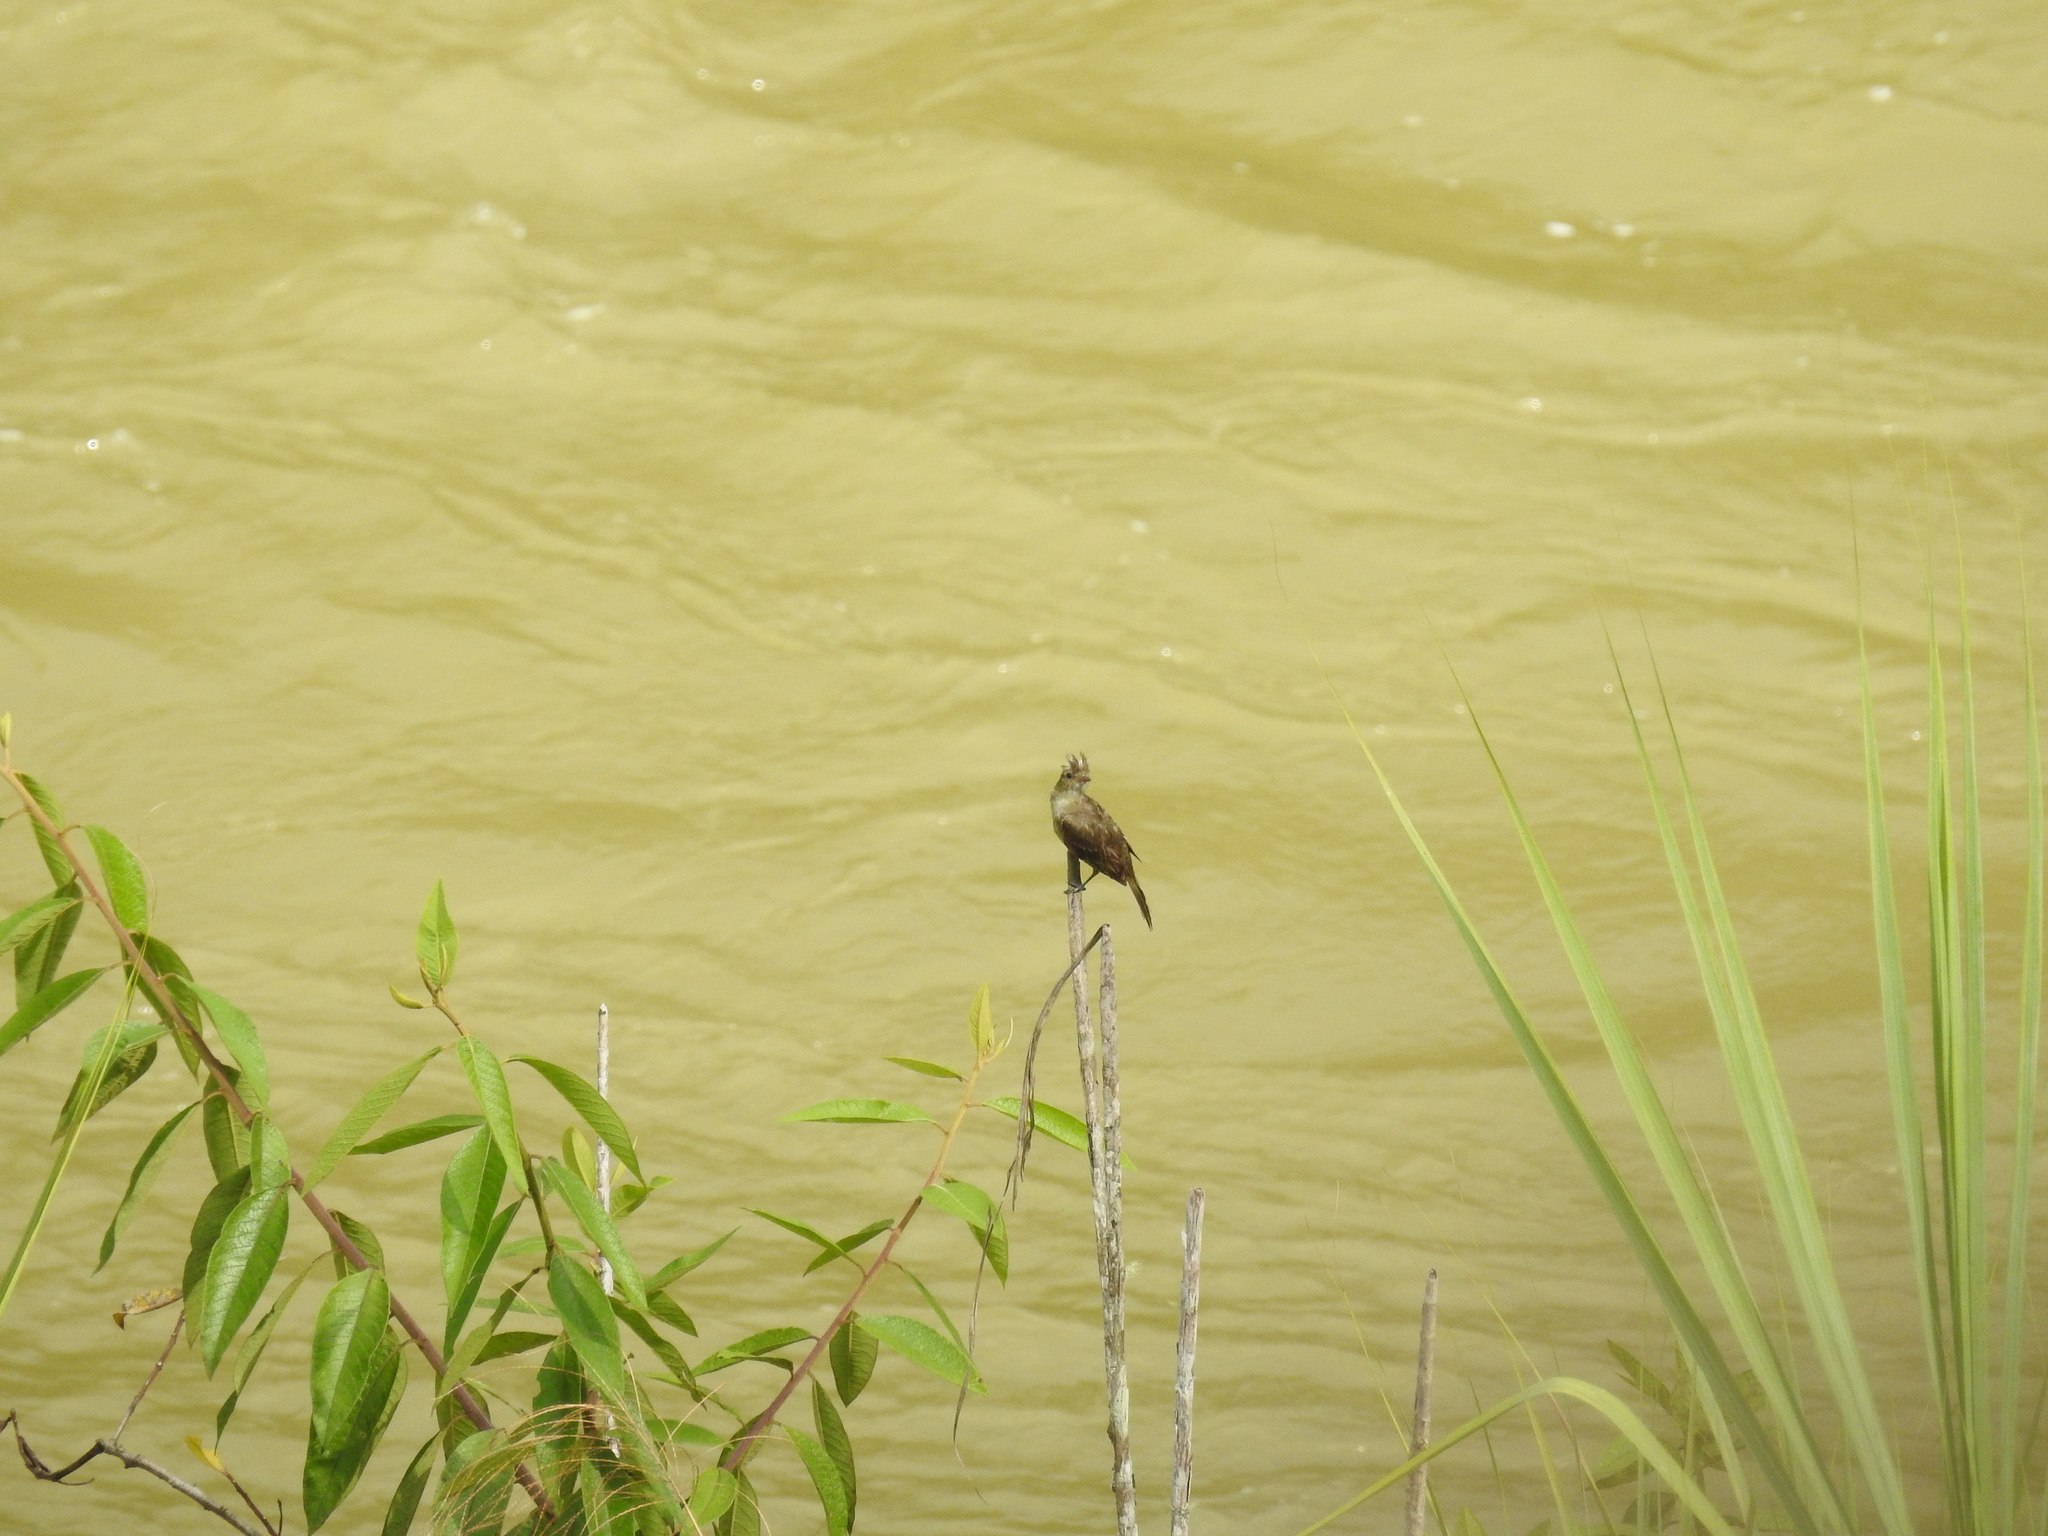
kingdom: Animalia
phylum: Chordata
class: Aves
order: Passeriformes
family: Tyrannidae
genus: Elaenia
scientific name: Elaenia gigas
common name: Mottle-backed elaenia
